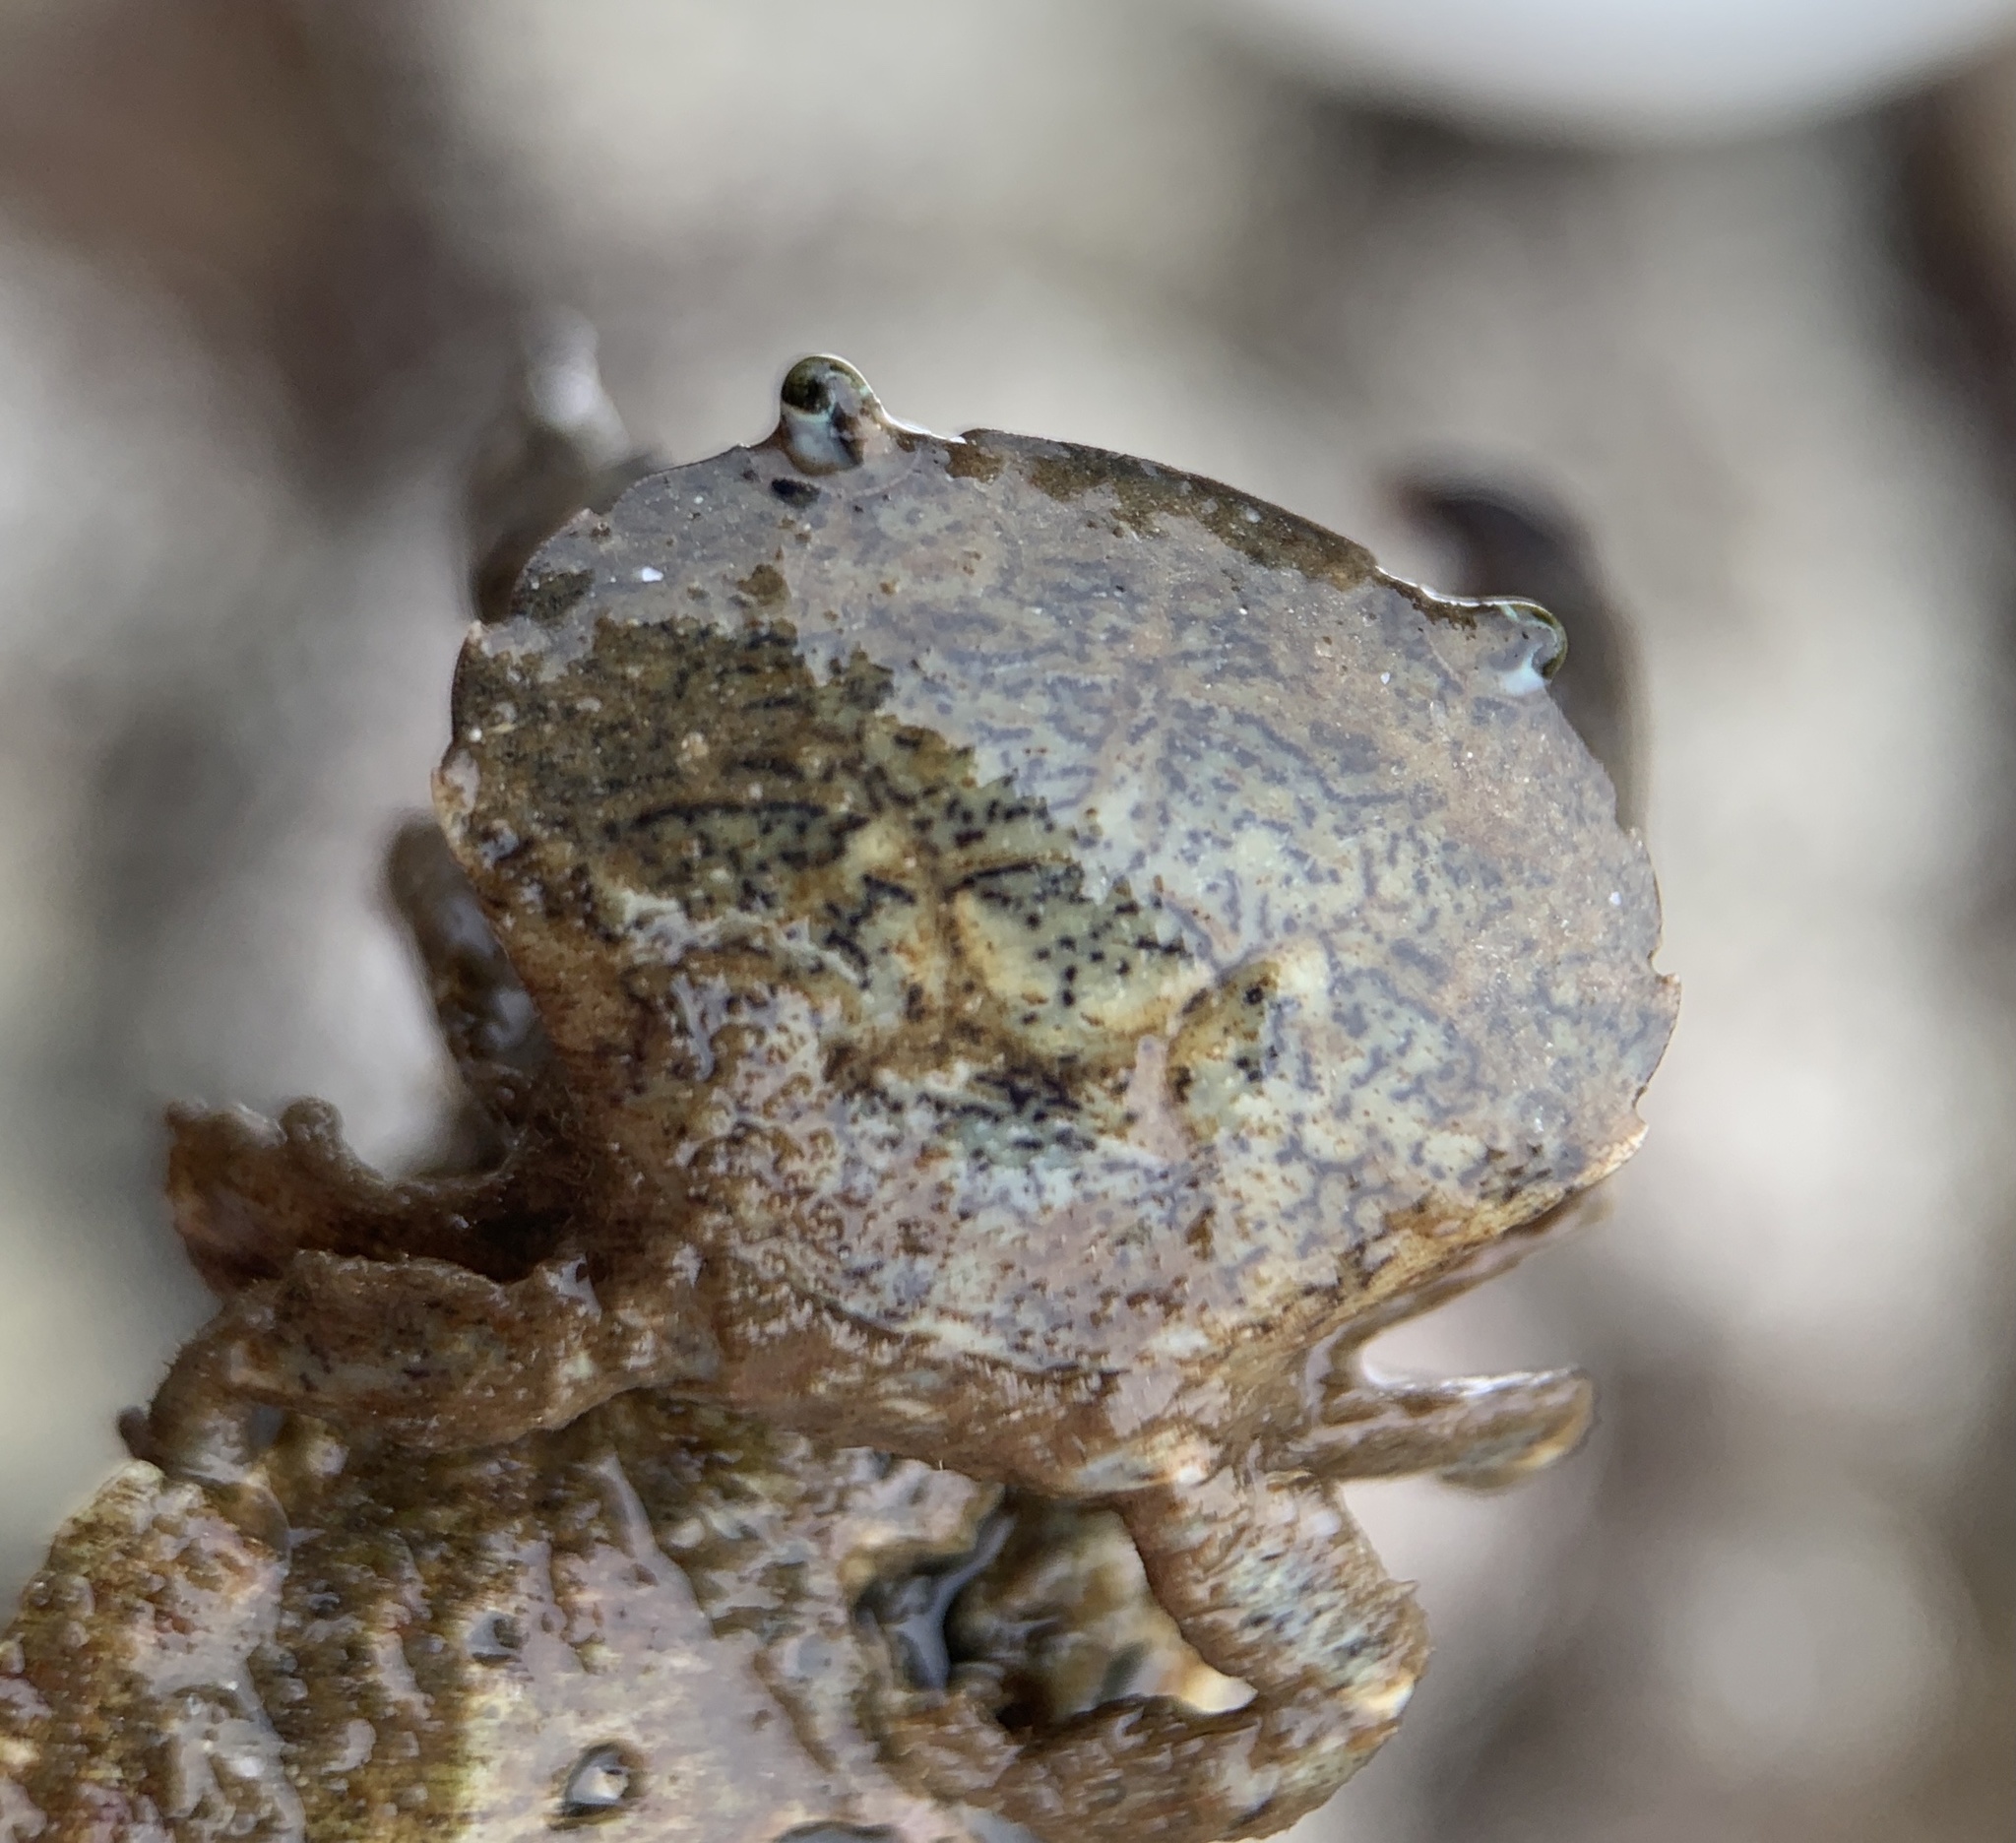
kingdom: Animalia
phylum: Arthropoda
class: Malacostraca
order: Decapoda
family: Panopeidae
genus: Dyspanopeus
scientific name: Dyspanopeus sayi
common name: Say mud crab
